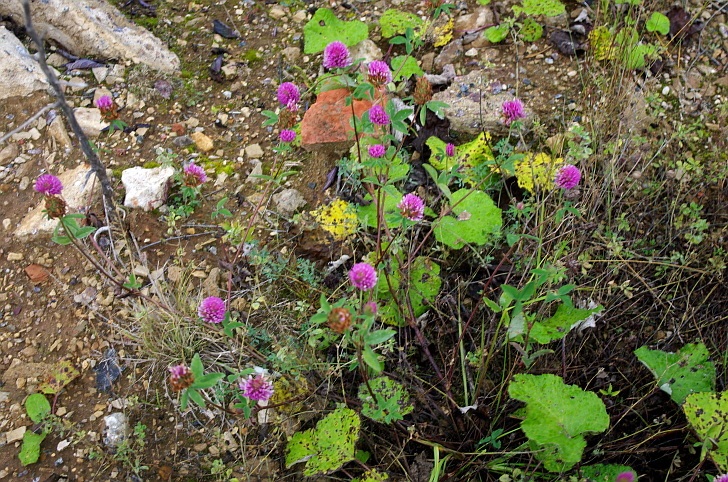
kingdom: Plantae
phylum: Tracheophyta
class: Magnoliopsida
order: Fabales
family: Fabaceae
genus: Trifolium
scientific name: Trifolium medium
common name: Zigzag clover
